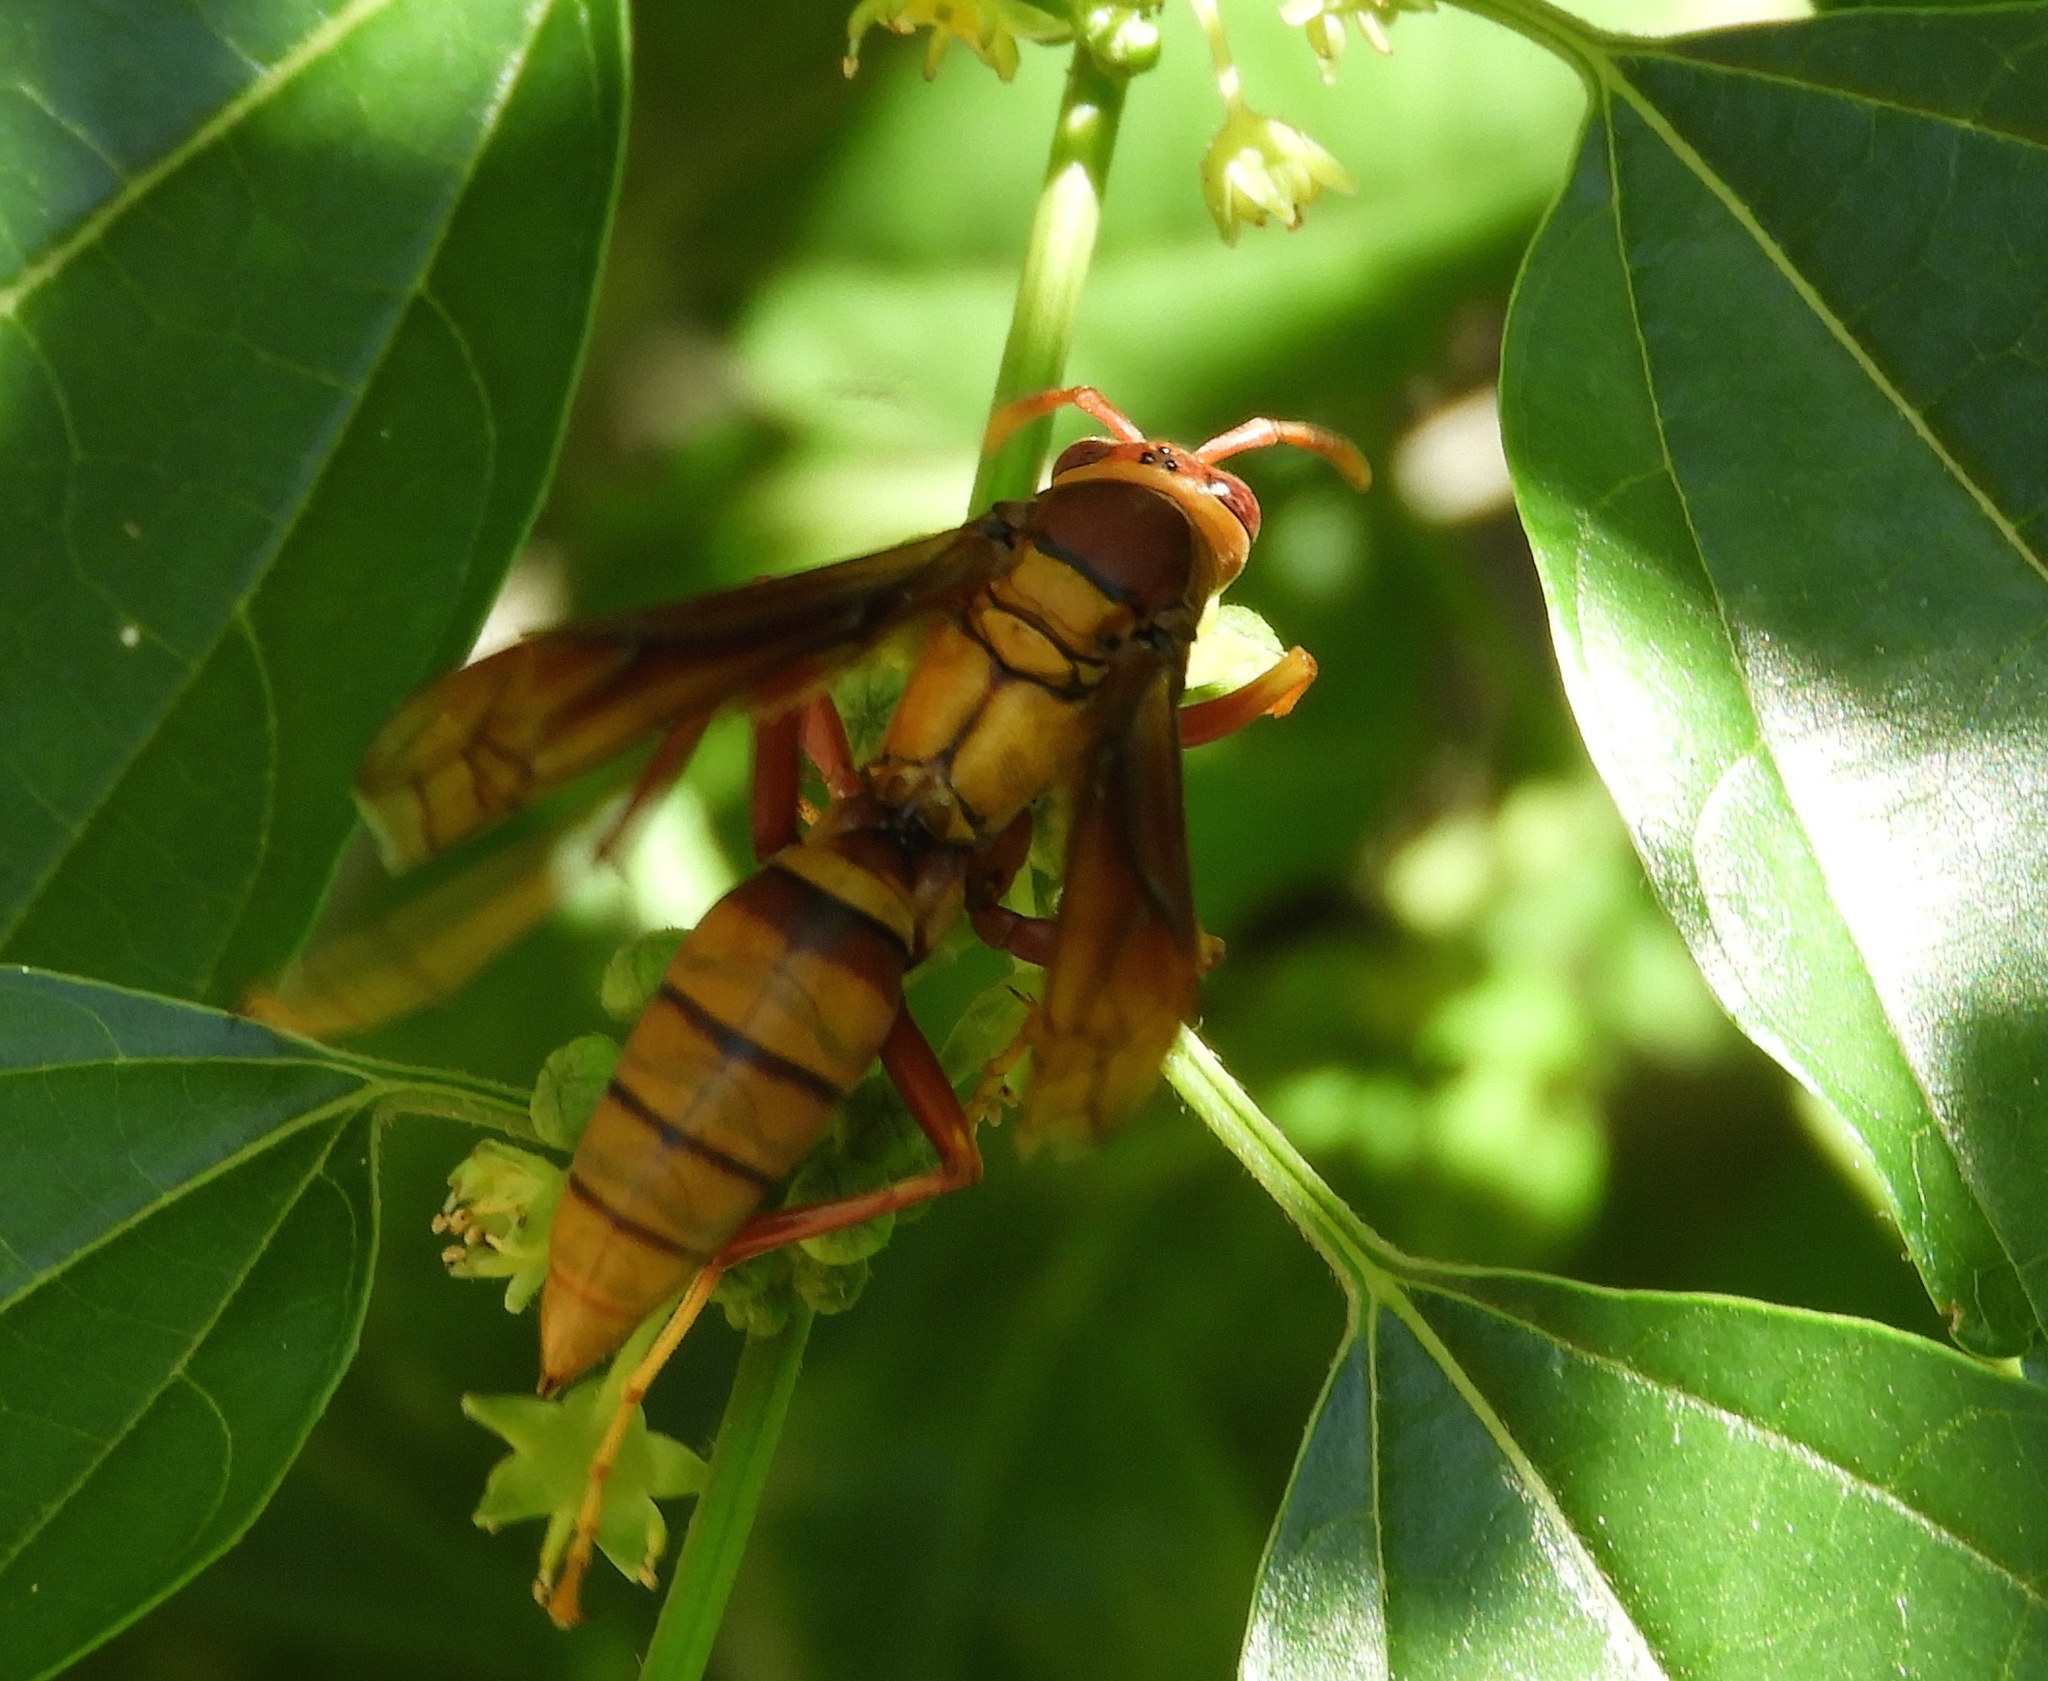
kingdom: Animalia
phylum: Arthropoda
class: Insecta
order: Hymenoptera
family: Eumenidae
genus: Polistes
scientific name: Polistes carnifex
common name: Paper wasp
